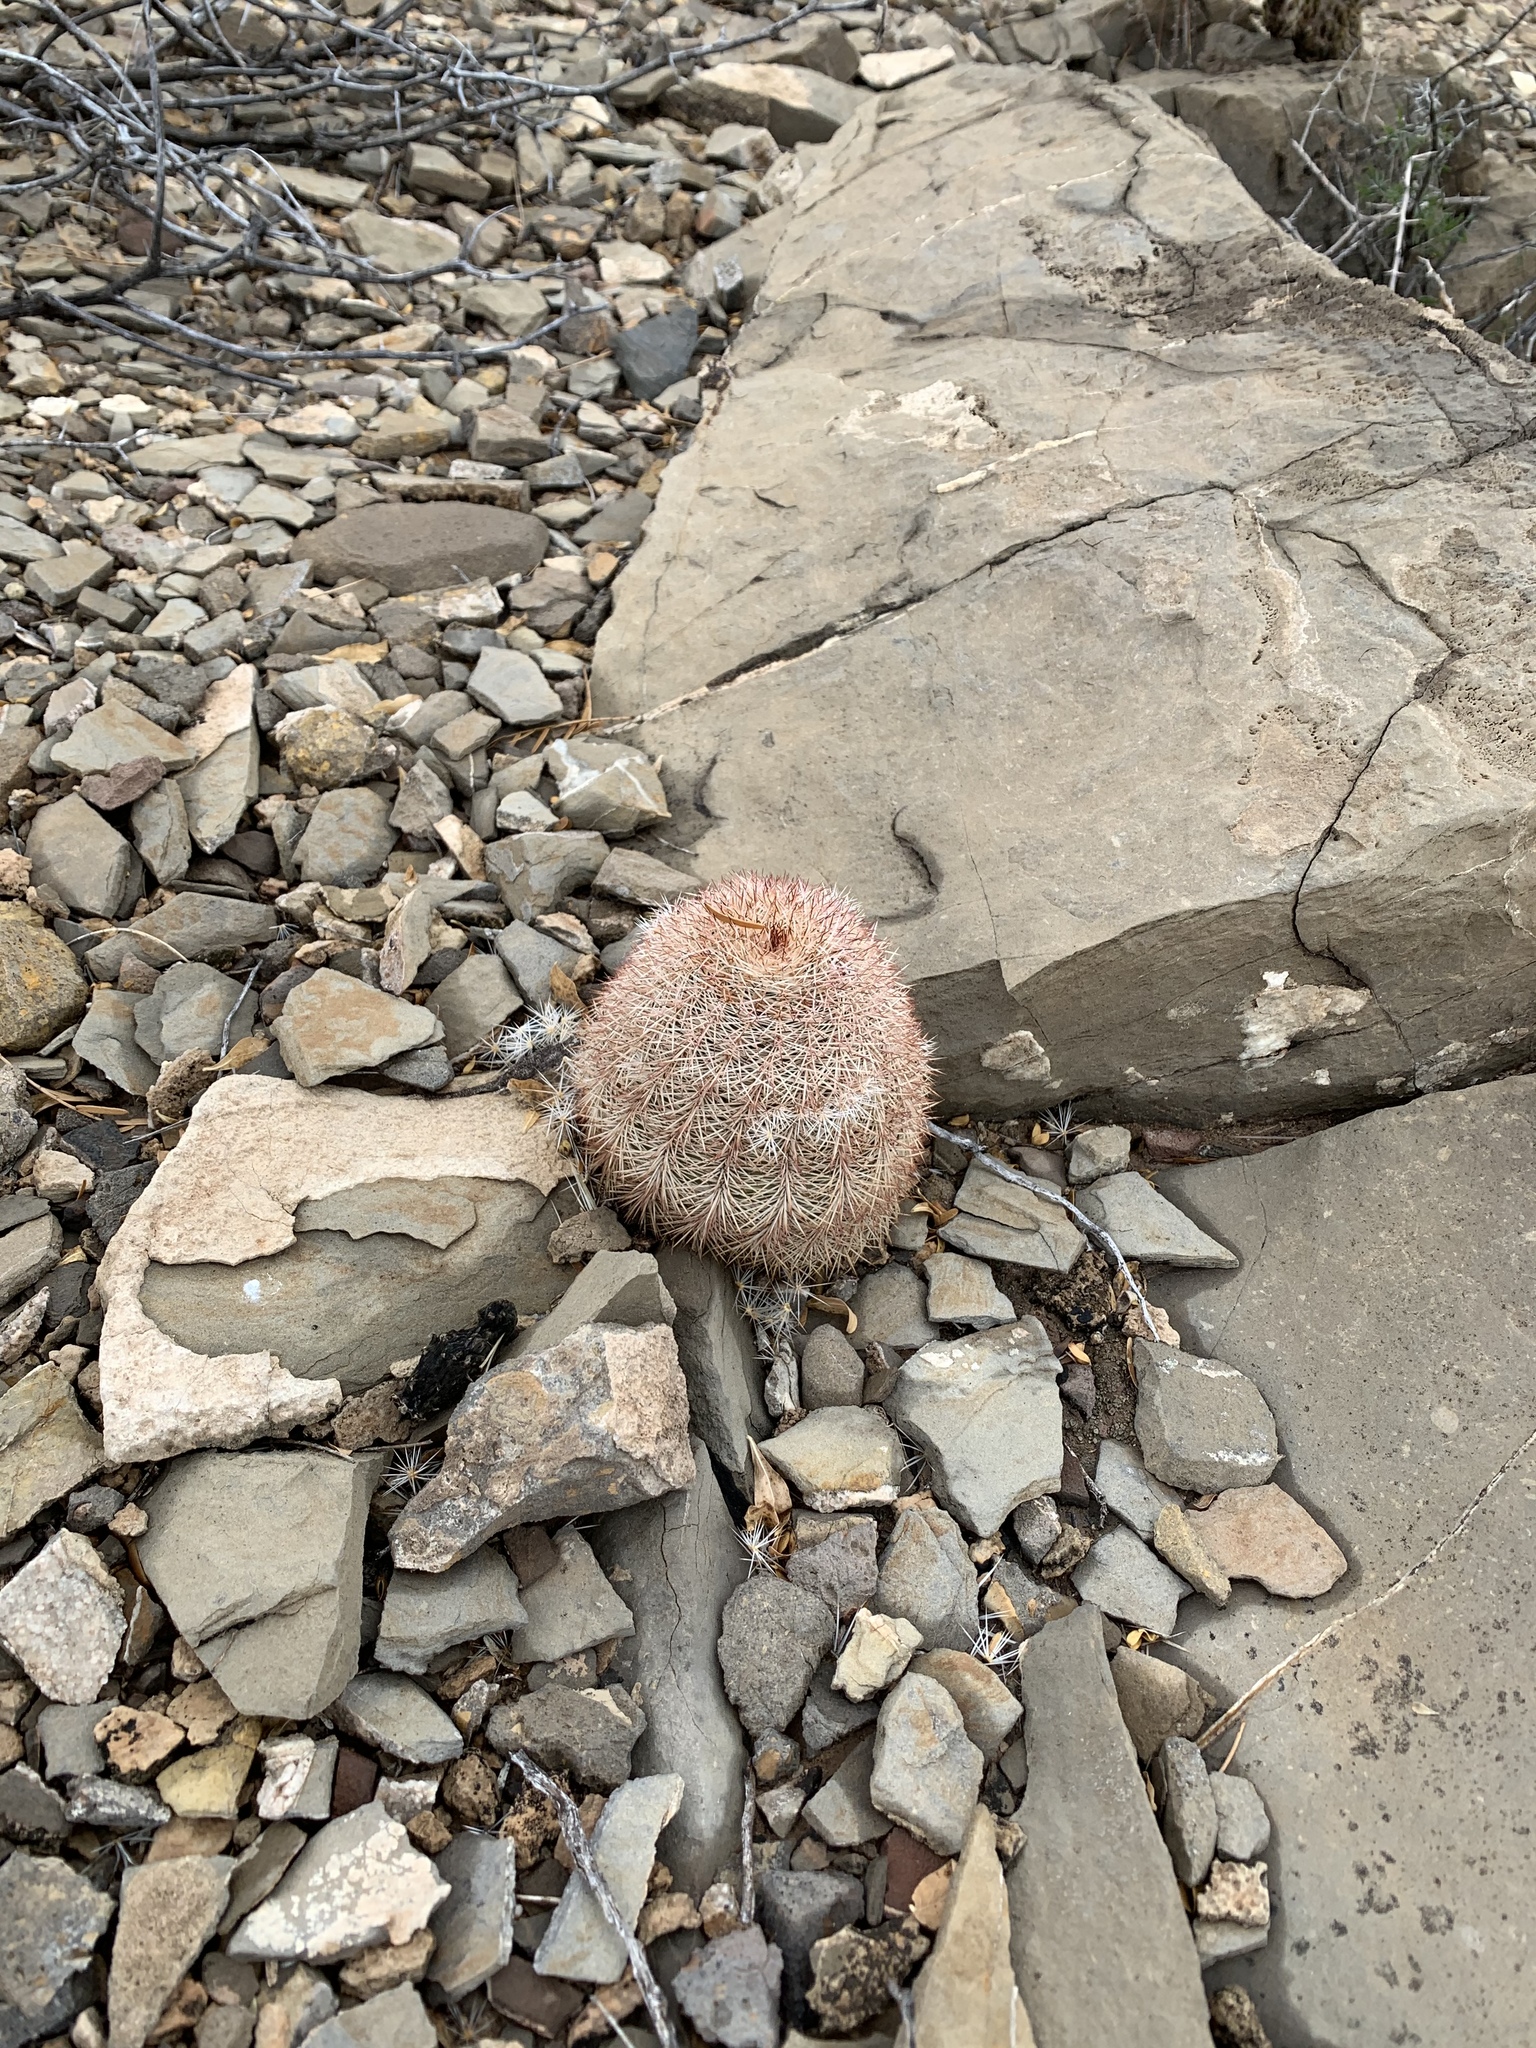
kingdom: Plantae
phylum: Tracheophyta
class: Magnoliopsida
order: Caryophyllales
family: Cactaceae
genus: Echinocereus
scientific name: Echinocereus dasyacanthus
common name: Spiny hedgehog cactus
